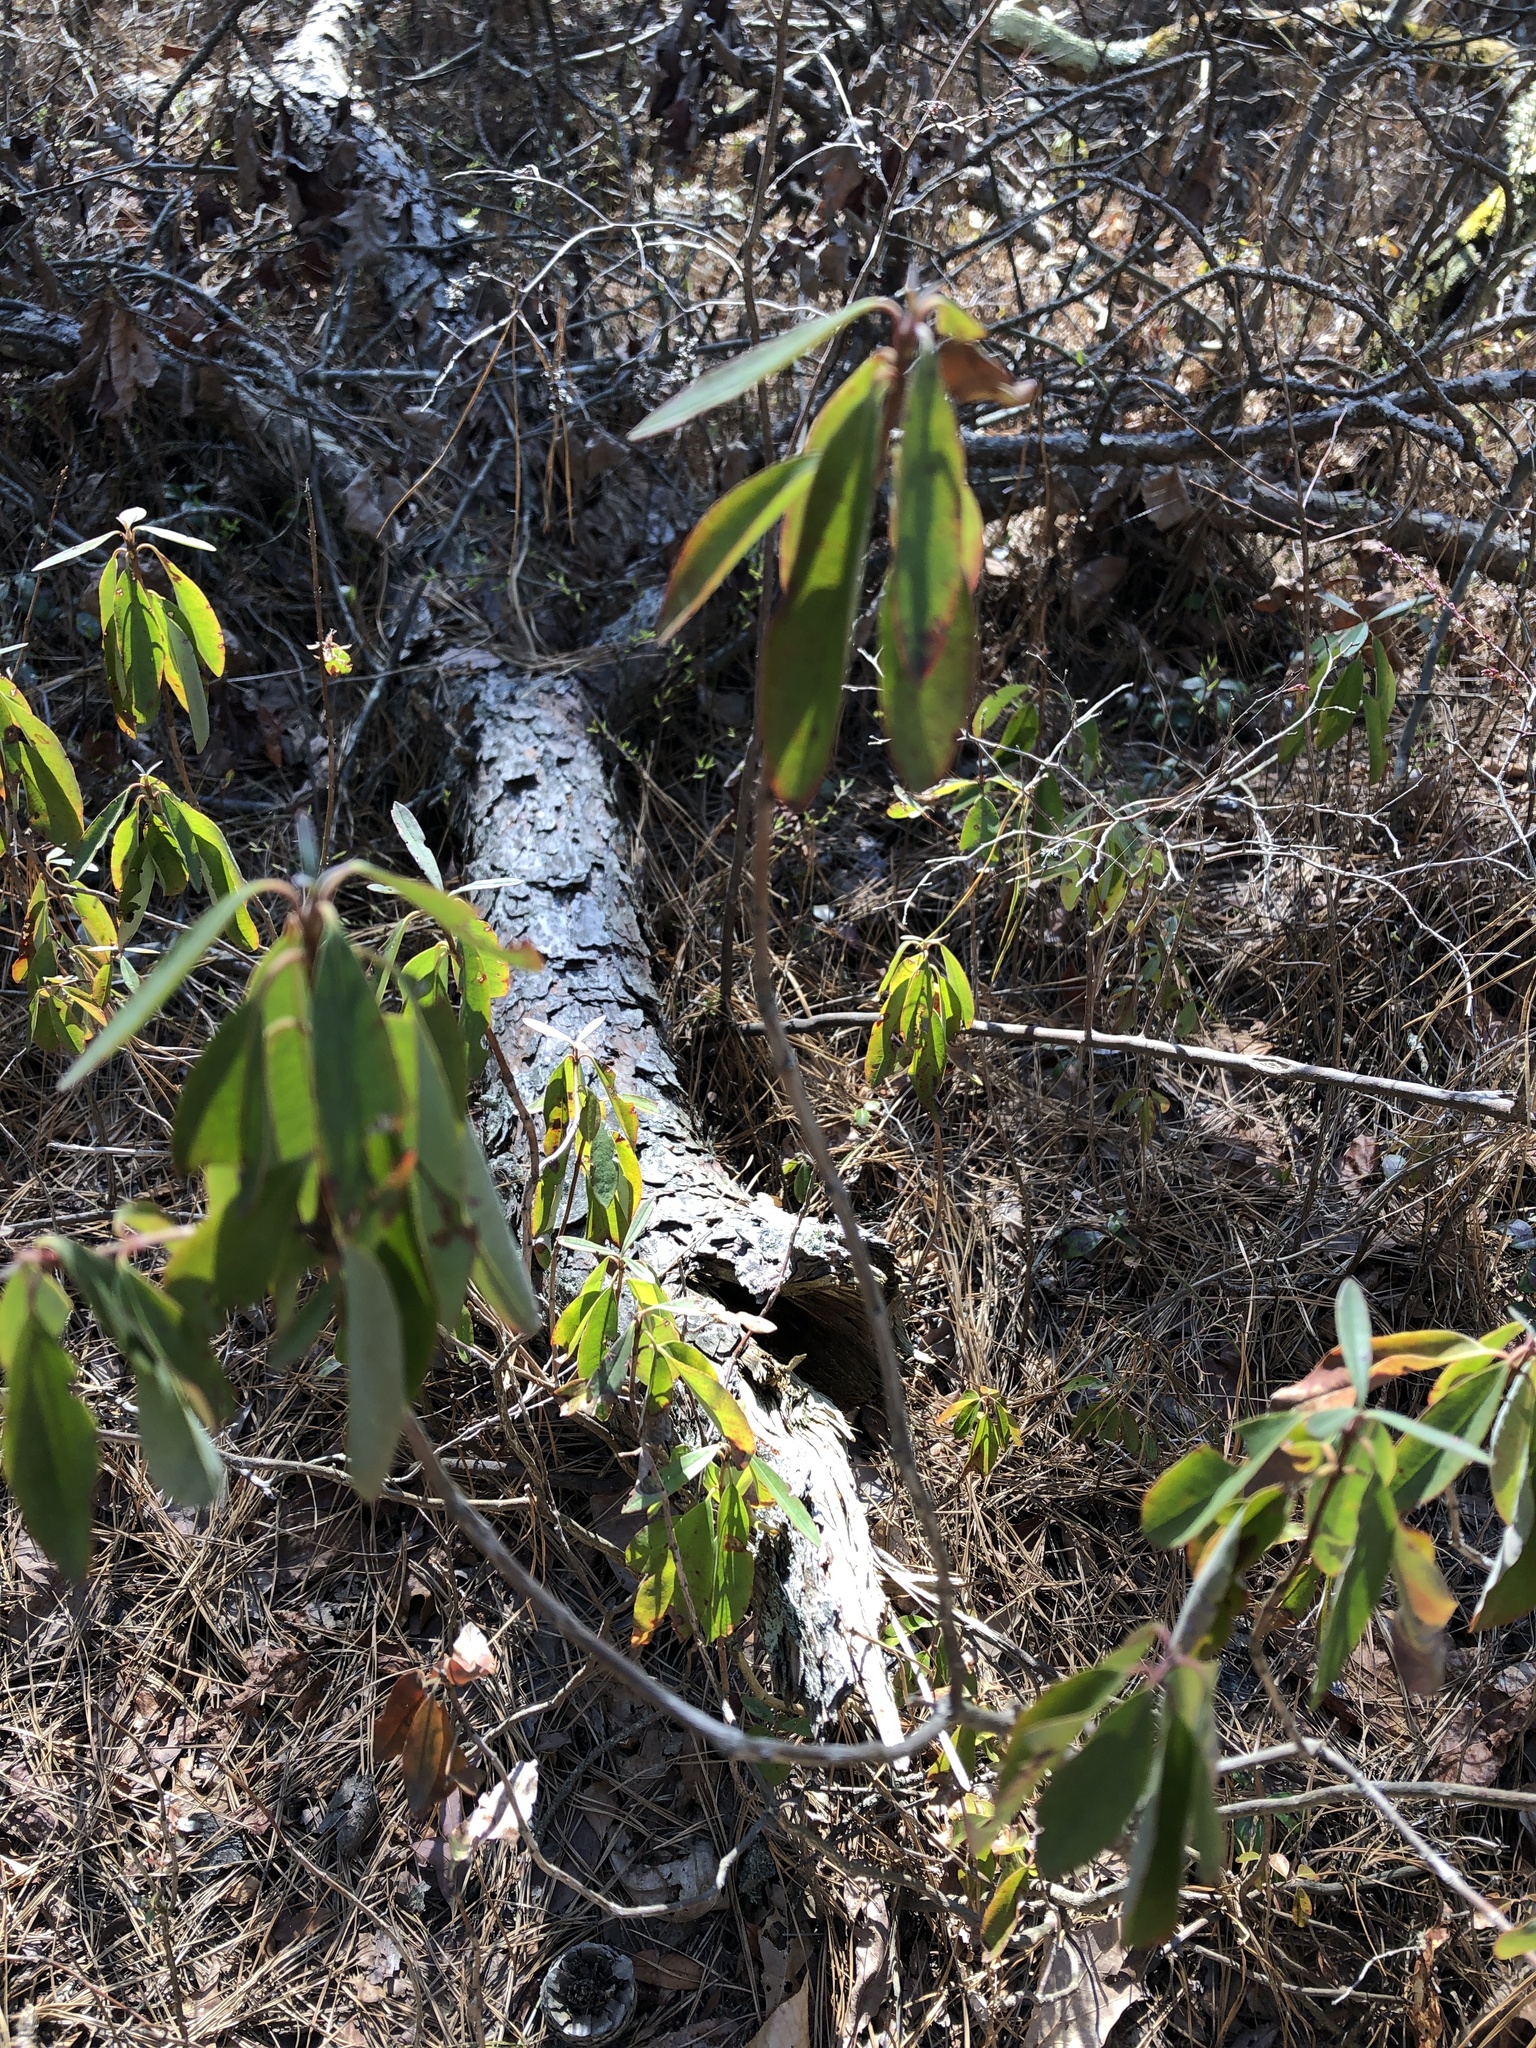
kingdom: Plantae
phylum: Tracheophyta
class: Magnoliopsida
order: Ericales
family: Ericaceae
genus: Kalmia
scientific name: Kalmia angustifolia
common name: Sheep-laurel
